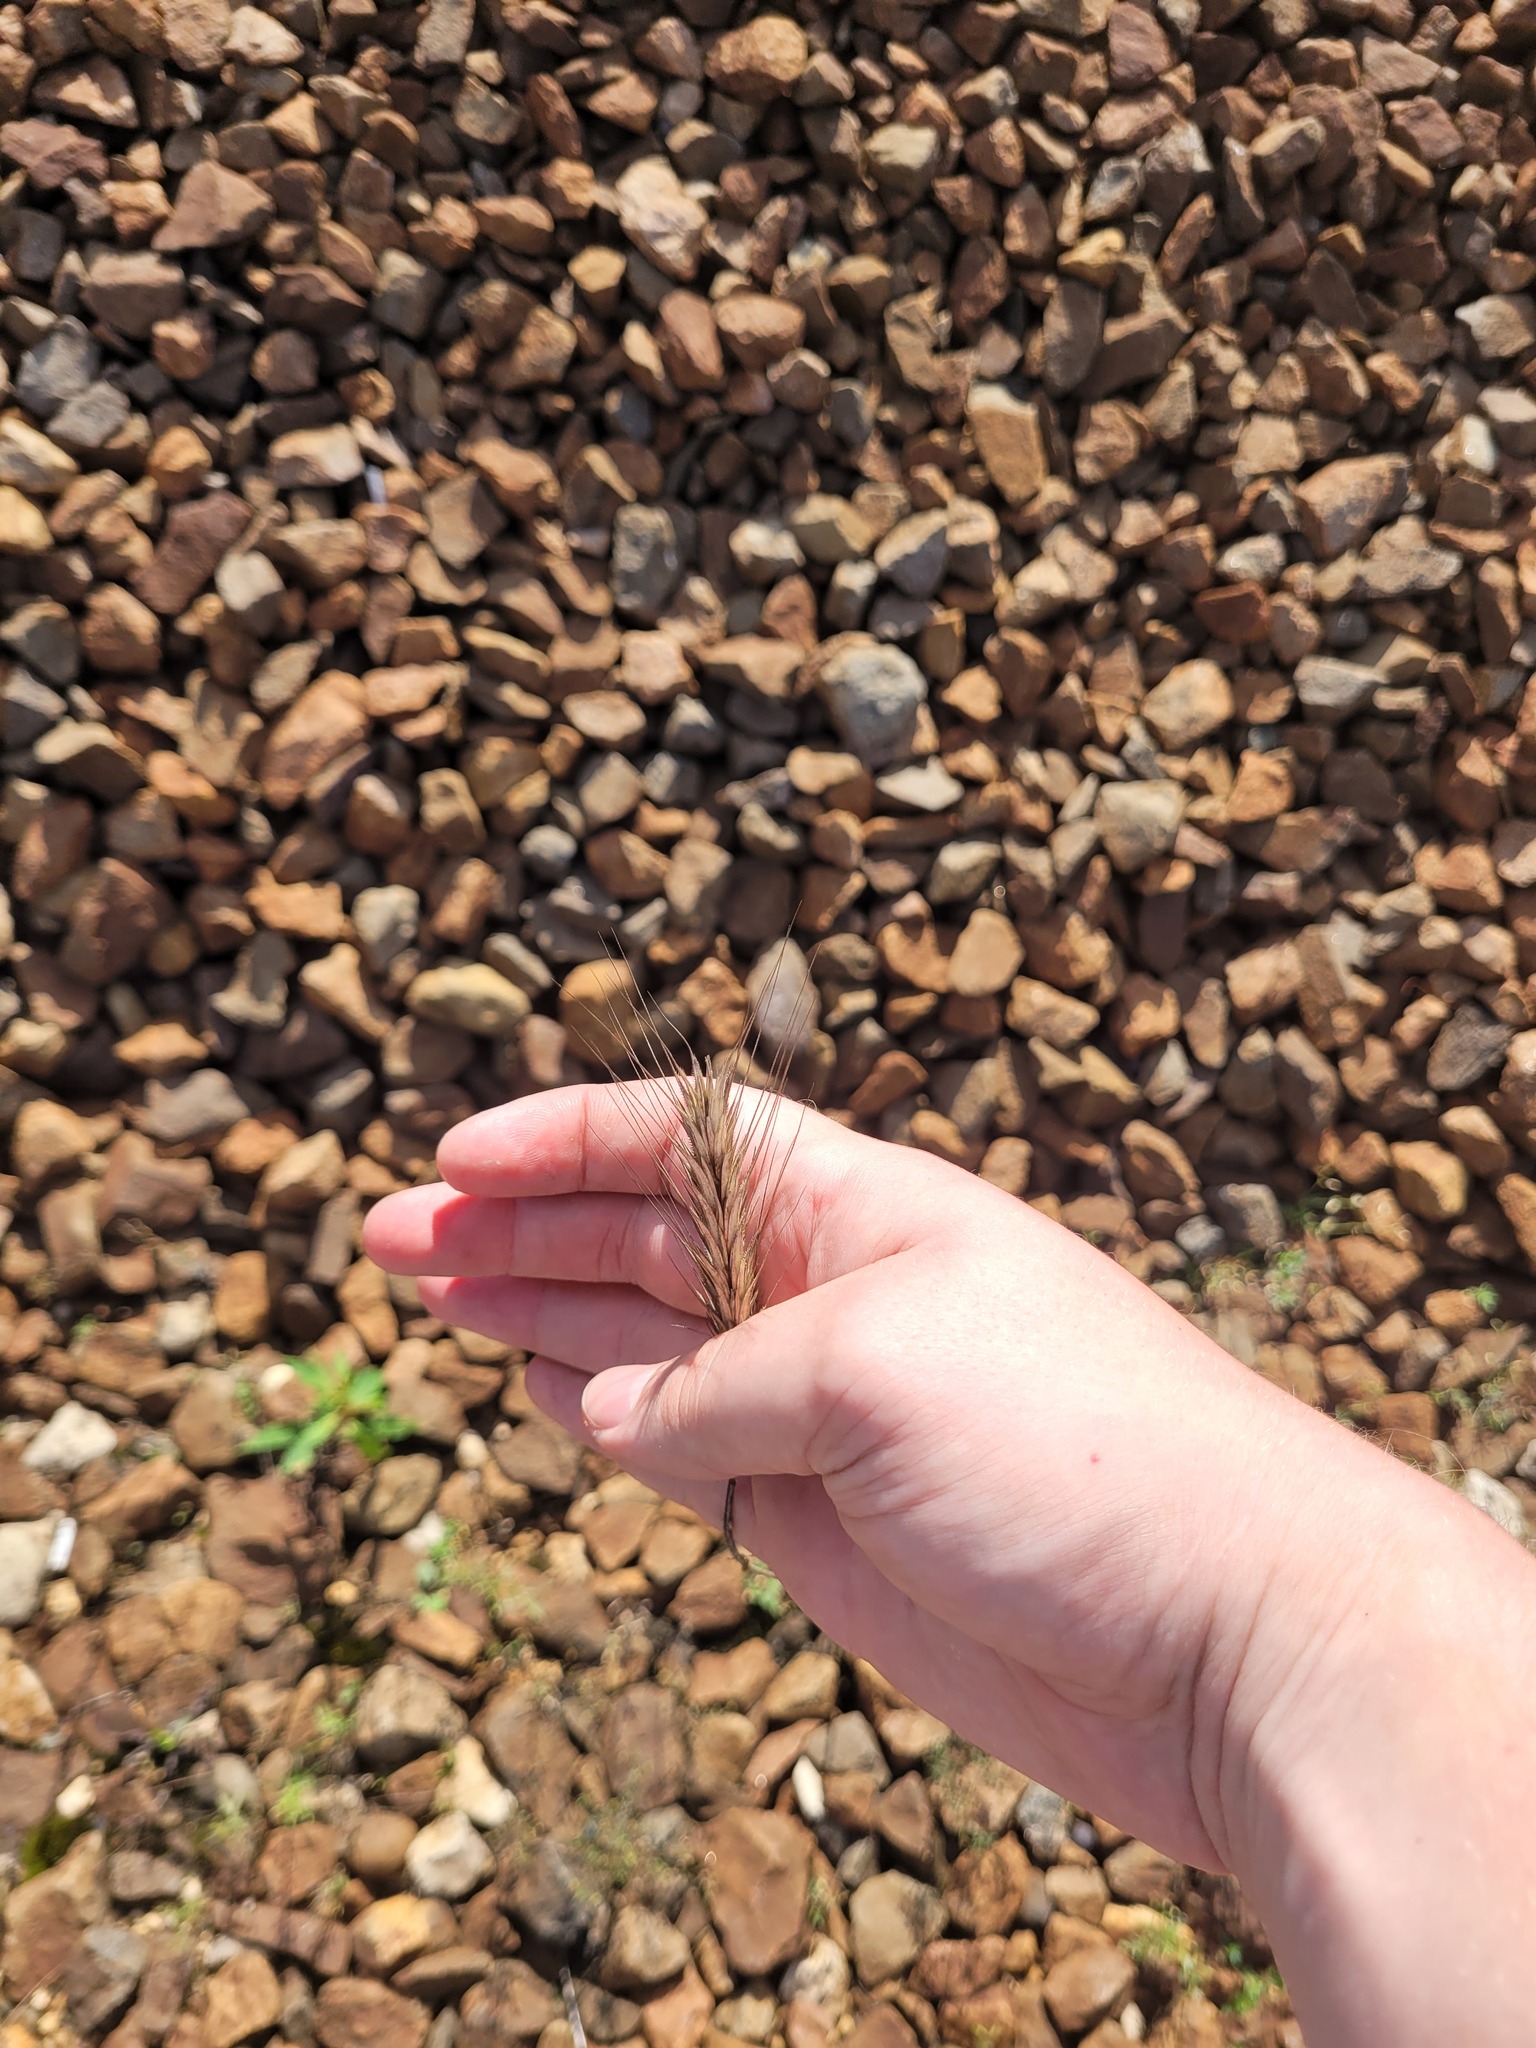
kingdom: Plantae
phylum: Tracheophyta
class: Liliopsida
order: Poales
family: Poaceae
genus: Secale
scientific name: Secale cereale
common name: Rye
